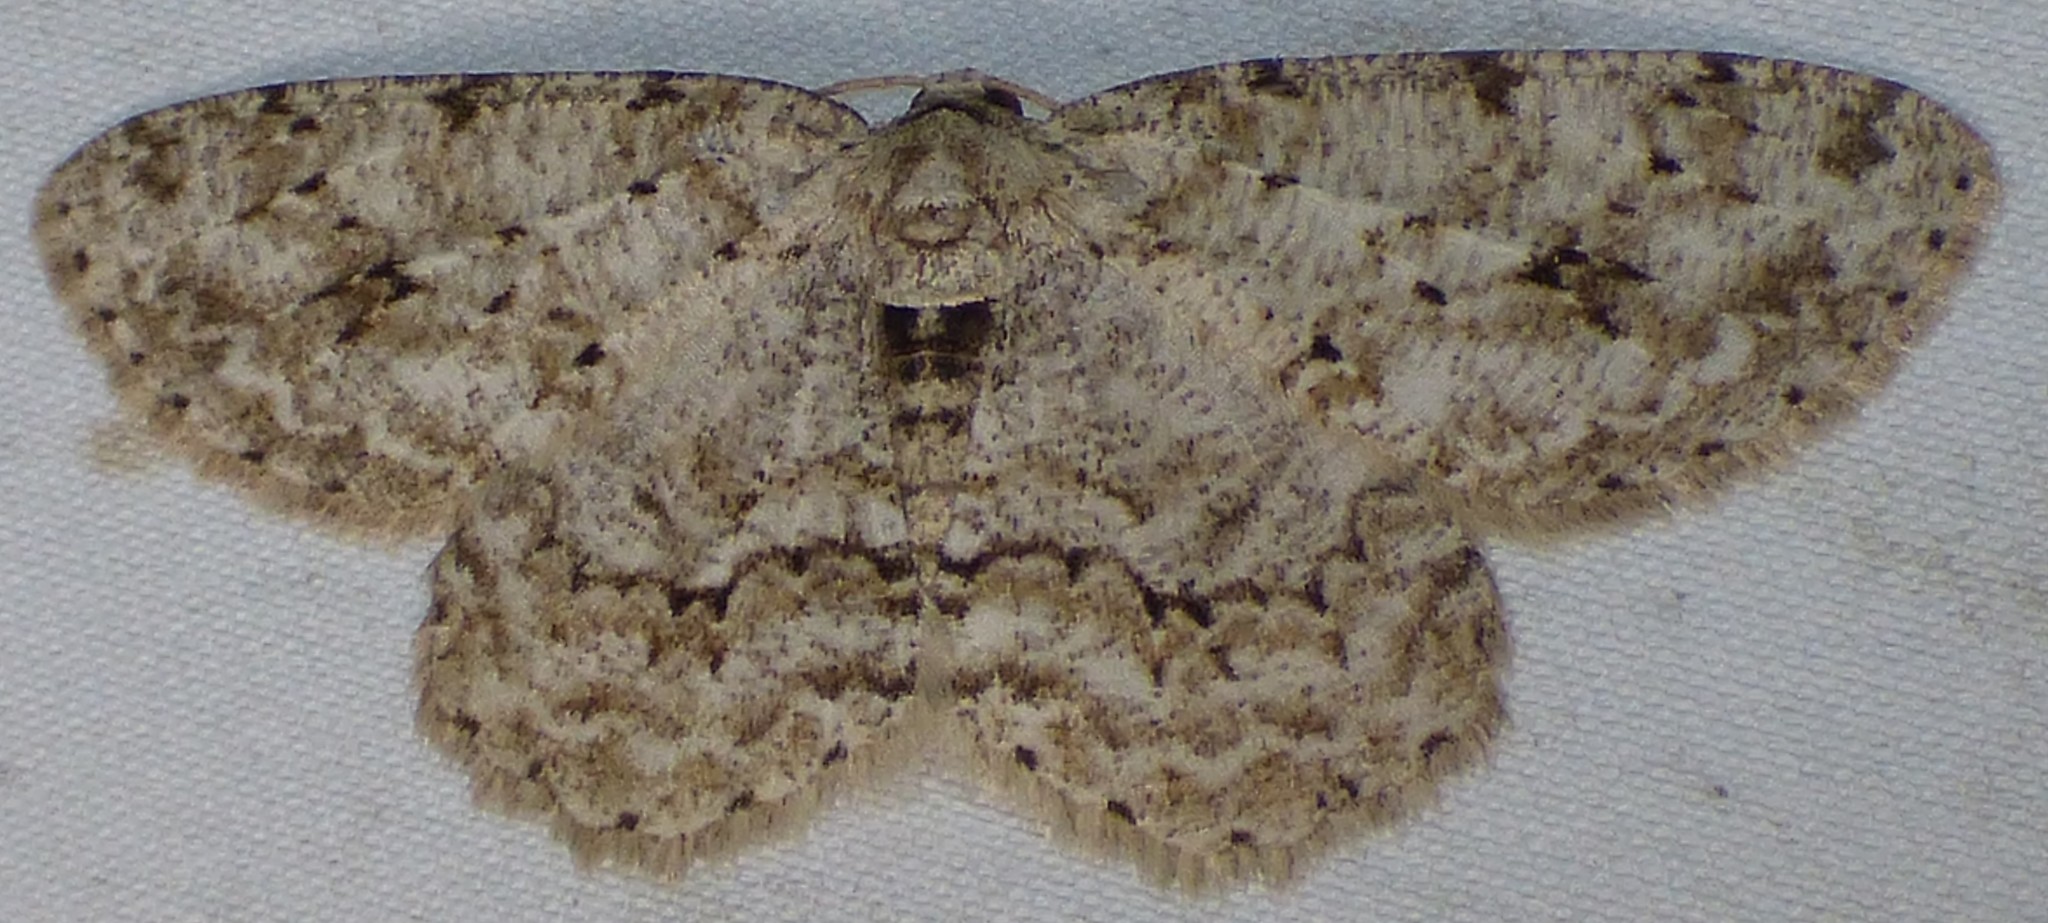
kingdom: Animalia
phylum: Arthropoda
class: Insecta
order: Lepidoptera
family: Geometridae
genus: Ectropis
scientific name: Ectropis crepuscularia
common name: Engrailed
